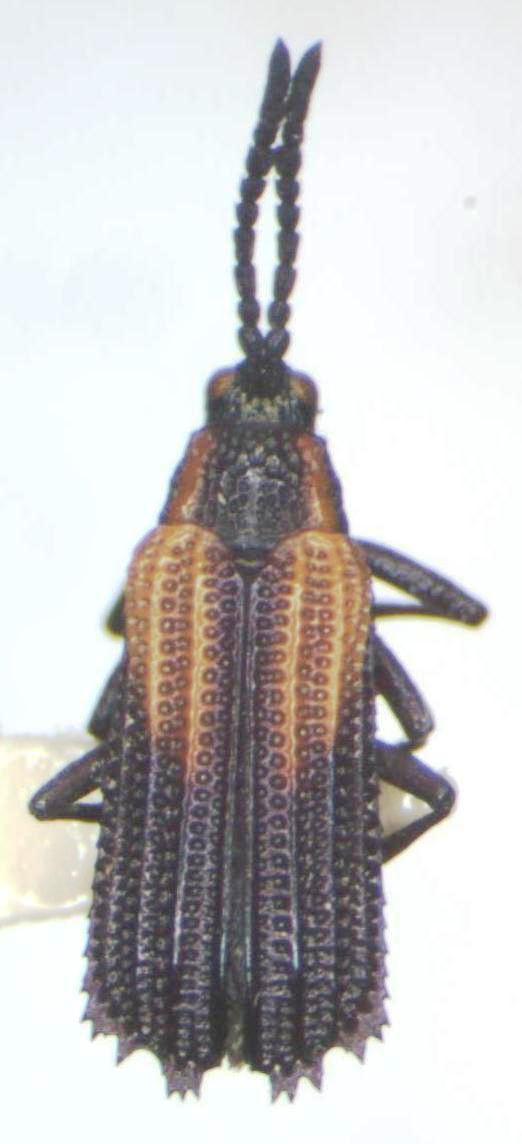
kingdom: Animalia
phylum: Arthropoda
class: Insecta
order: Coleoptera
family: Chrysomelidae
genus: Pentispa
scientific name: Pentispa clarkella
